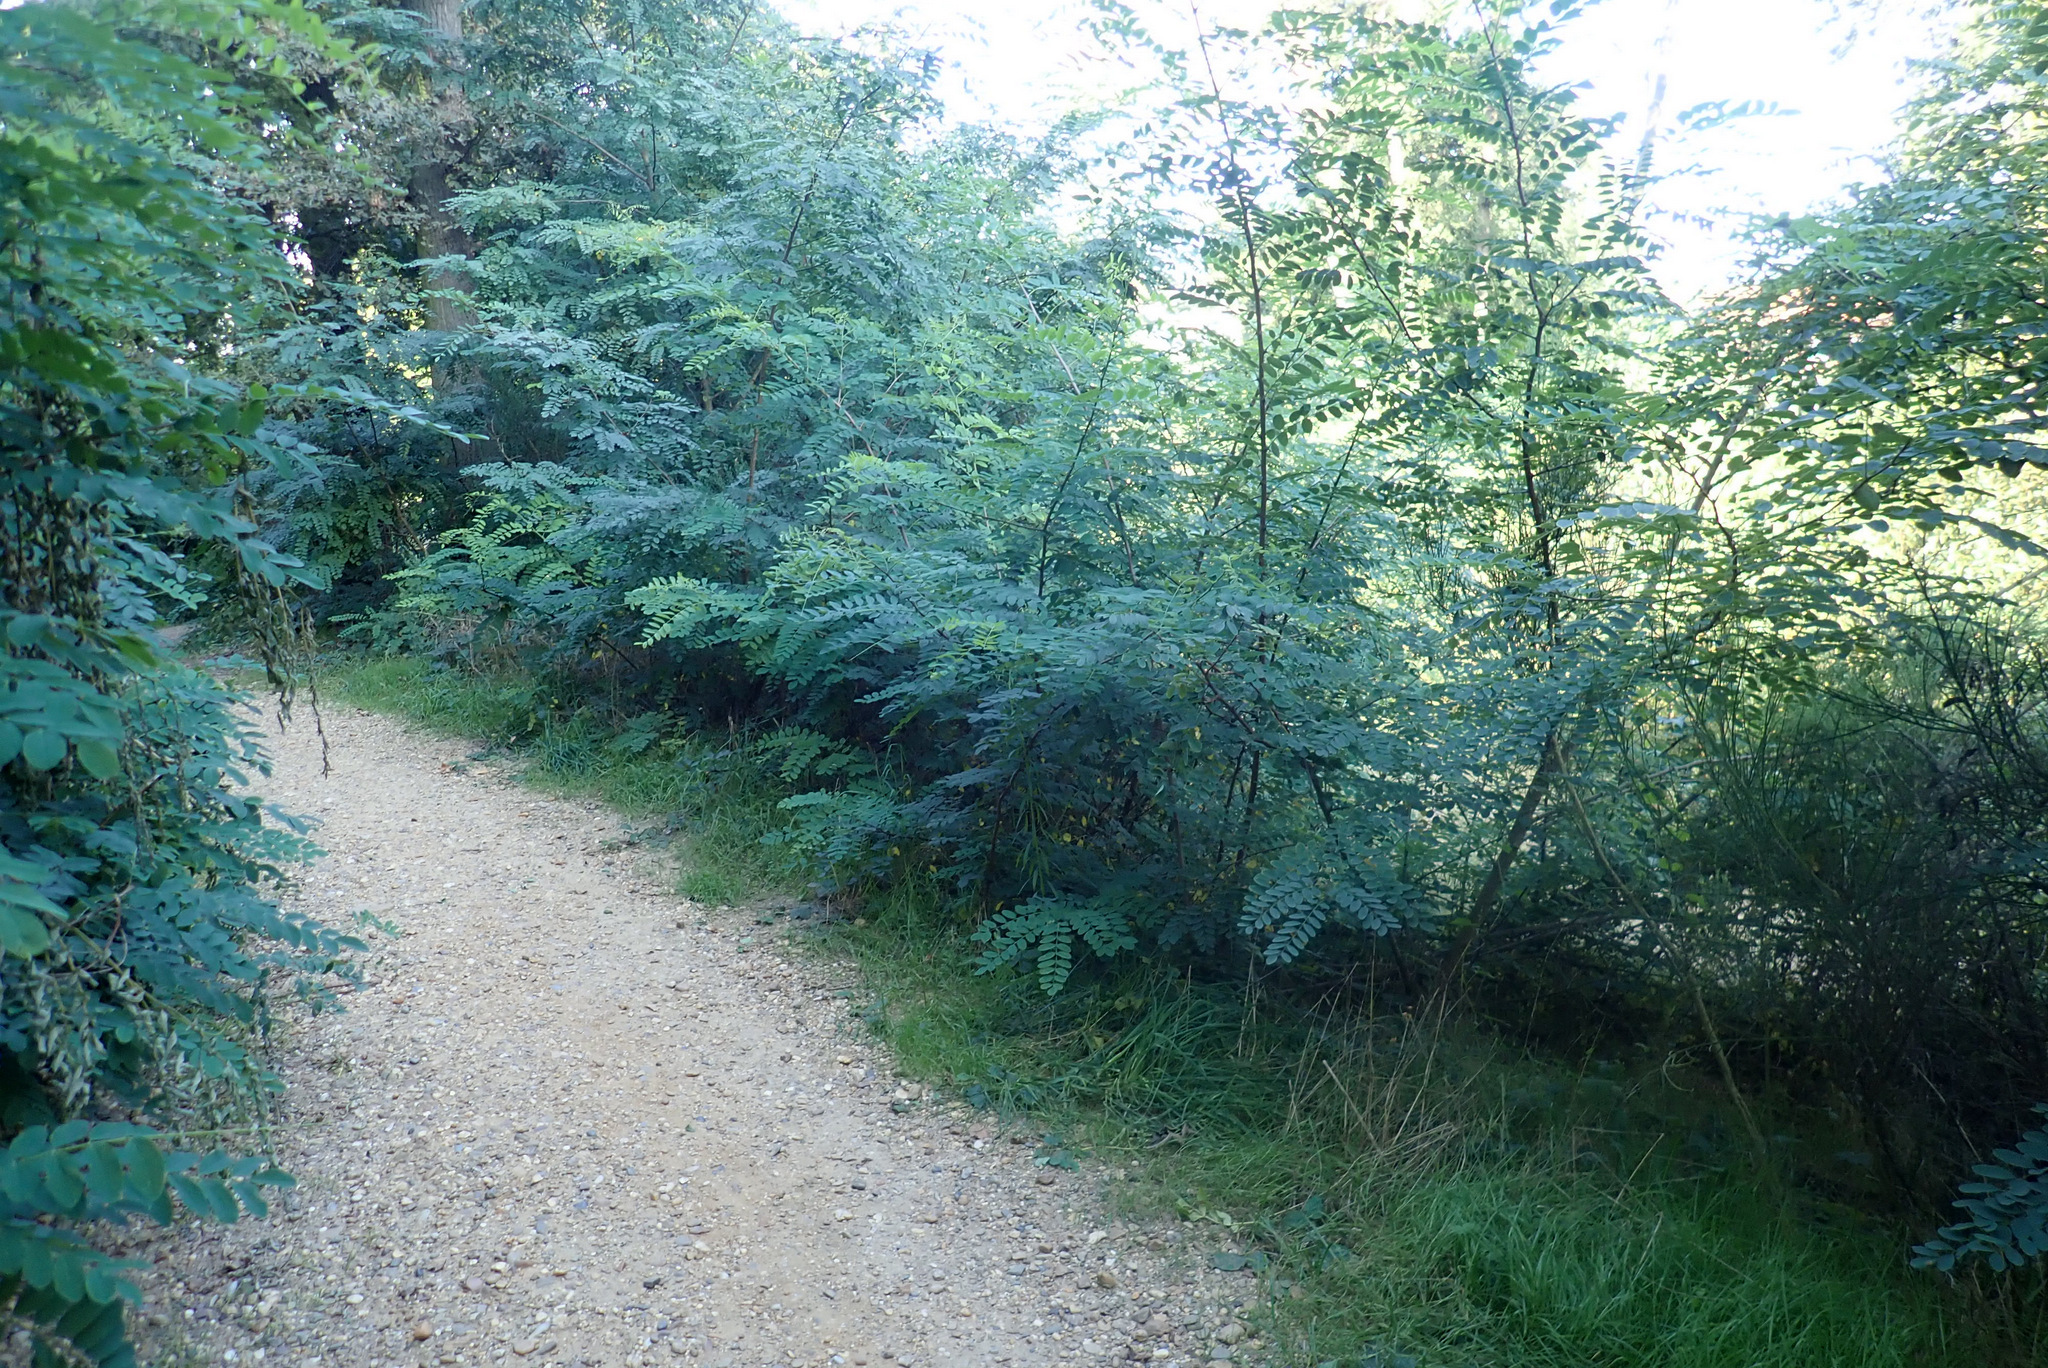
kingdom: Plantae
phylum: Tracheophyta
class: Magnoliopsida
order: Fabales
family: Fabaceae
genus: Robinia
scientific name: Robinia pseudoacacia
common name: Black locust
